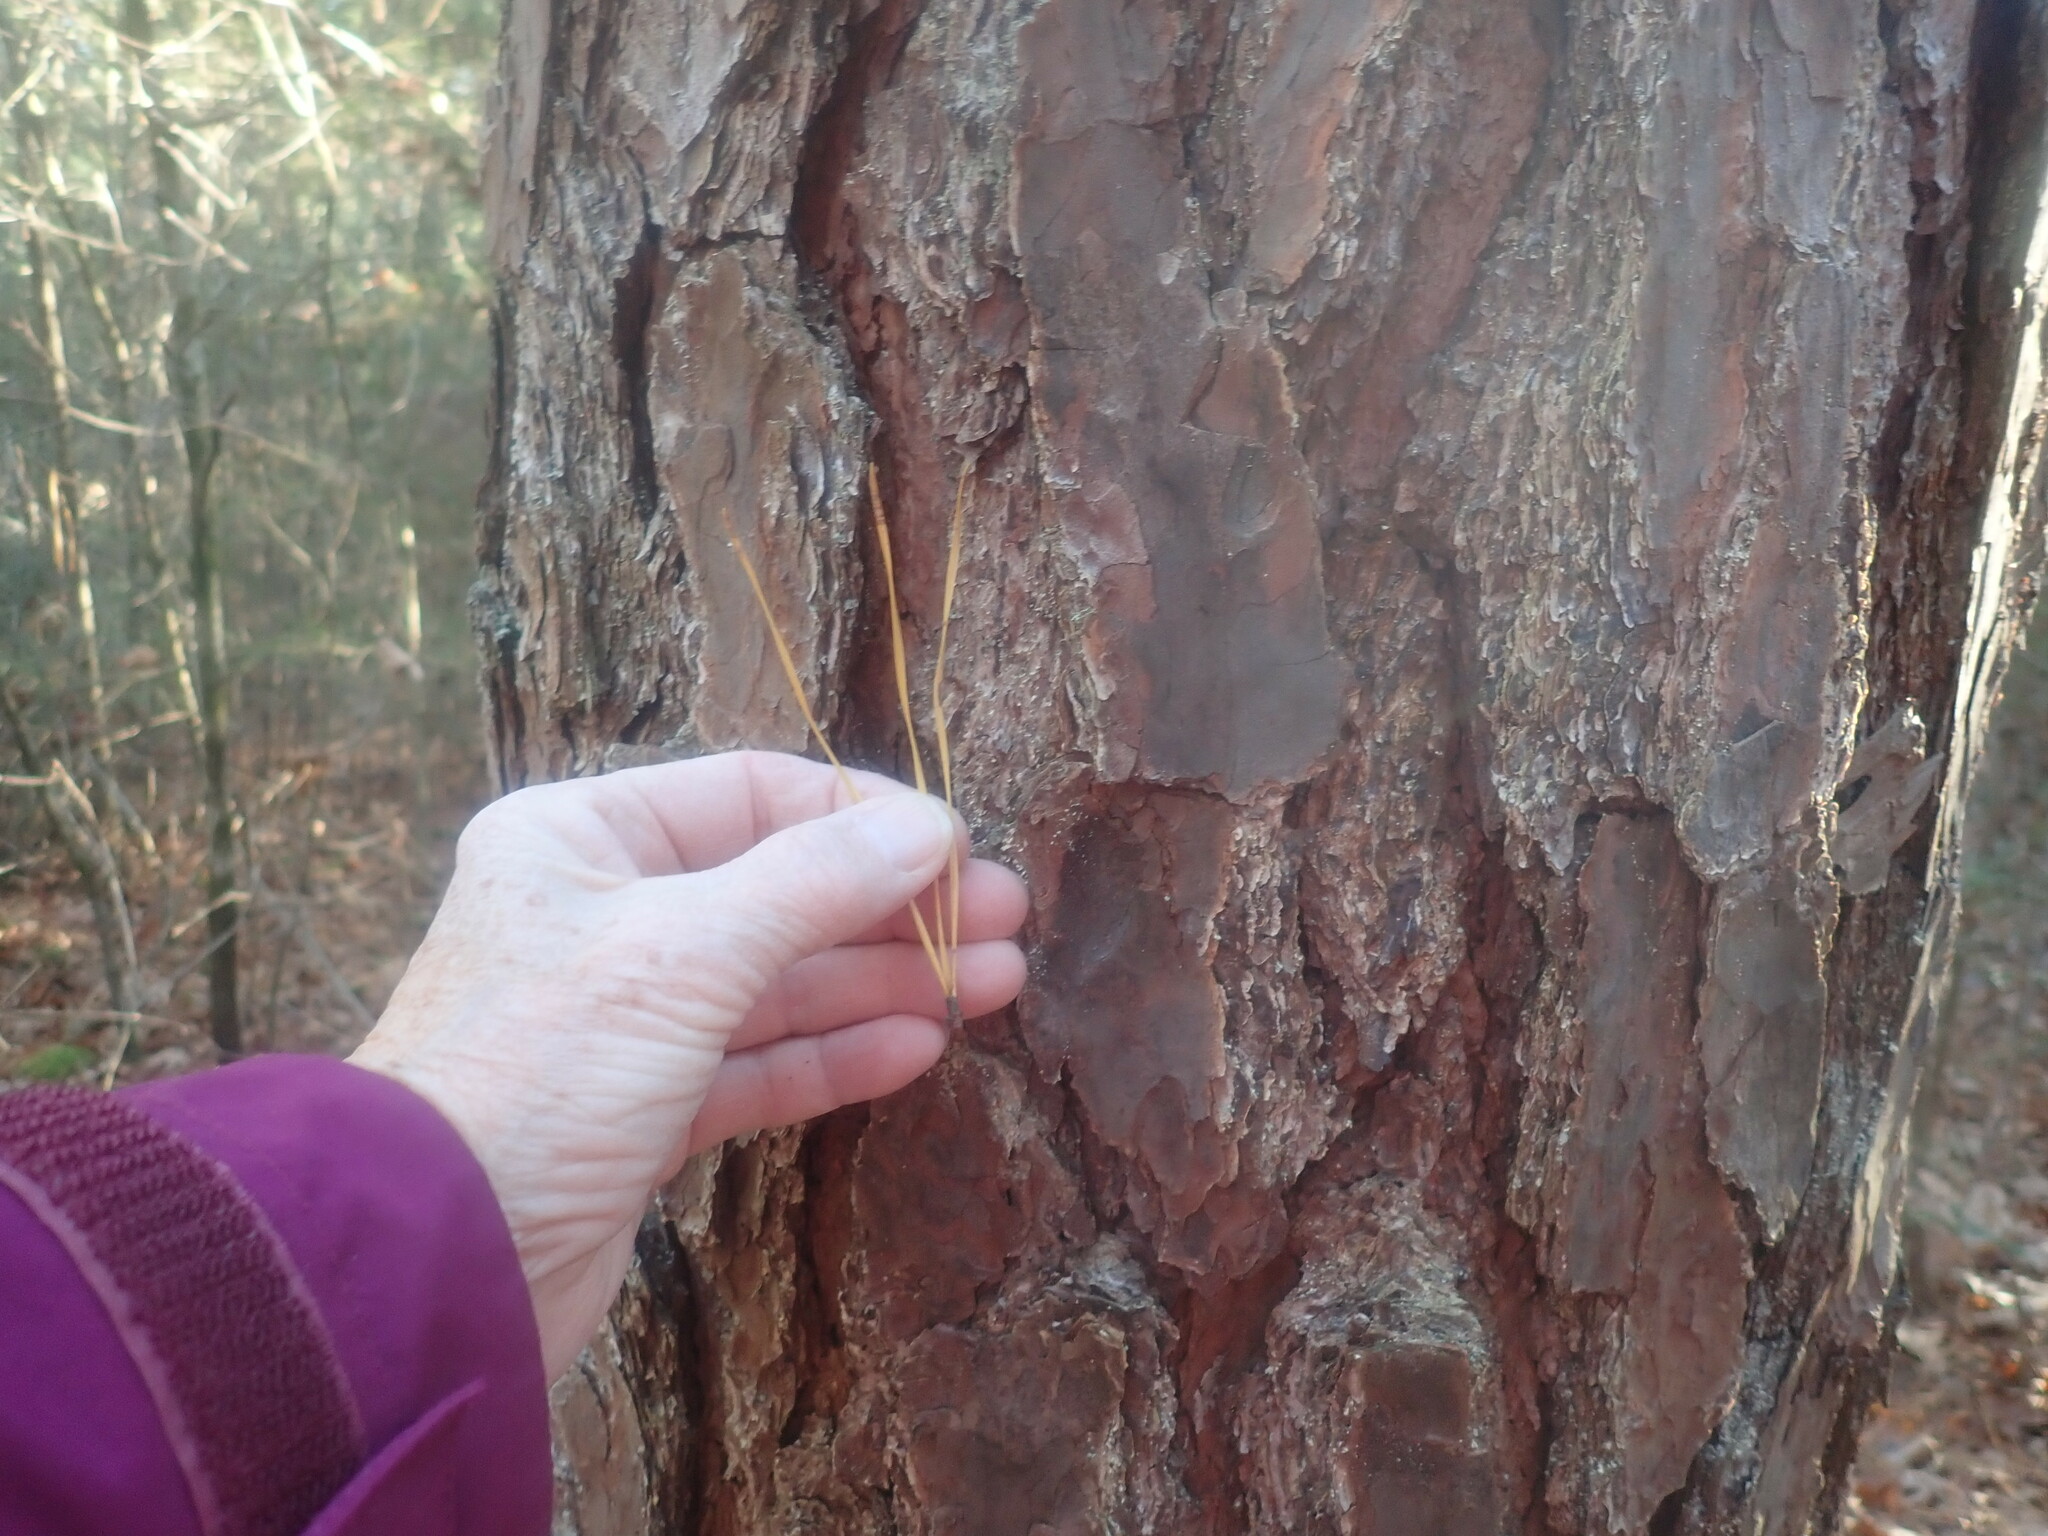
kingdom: Plantae
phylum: Tracheophyta
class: Pinopsida
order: Pinales
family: Pinaceae
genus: Pinus
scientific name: Pinus rigida
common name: Pitch pine
